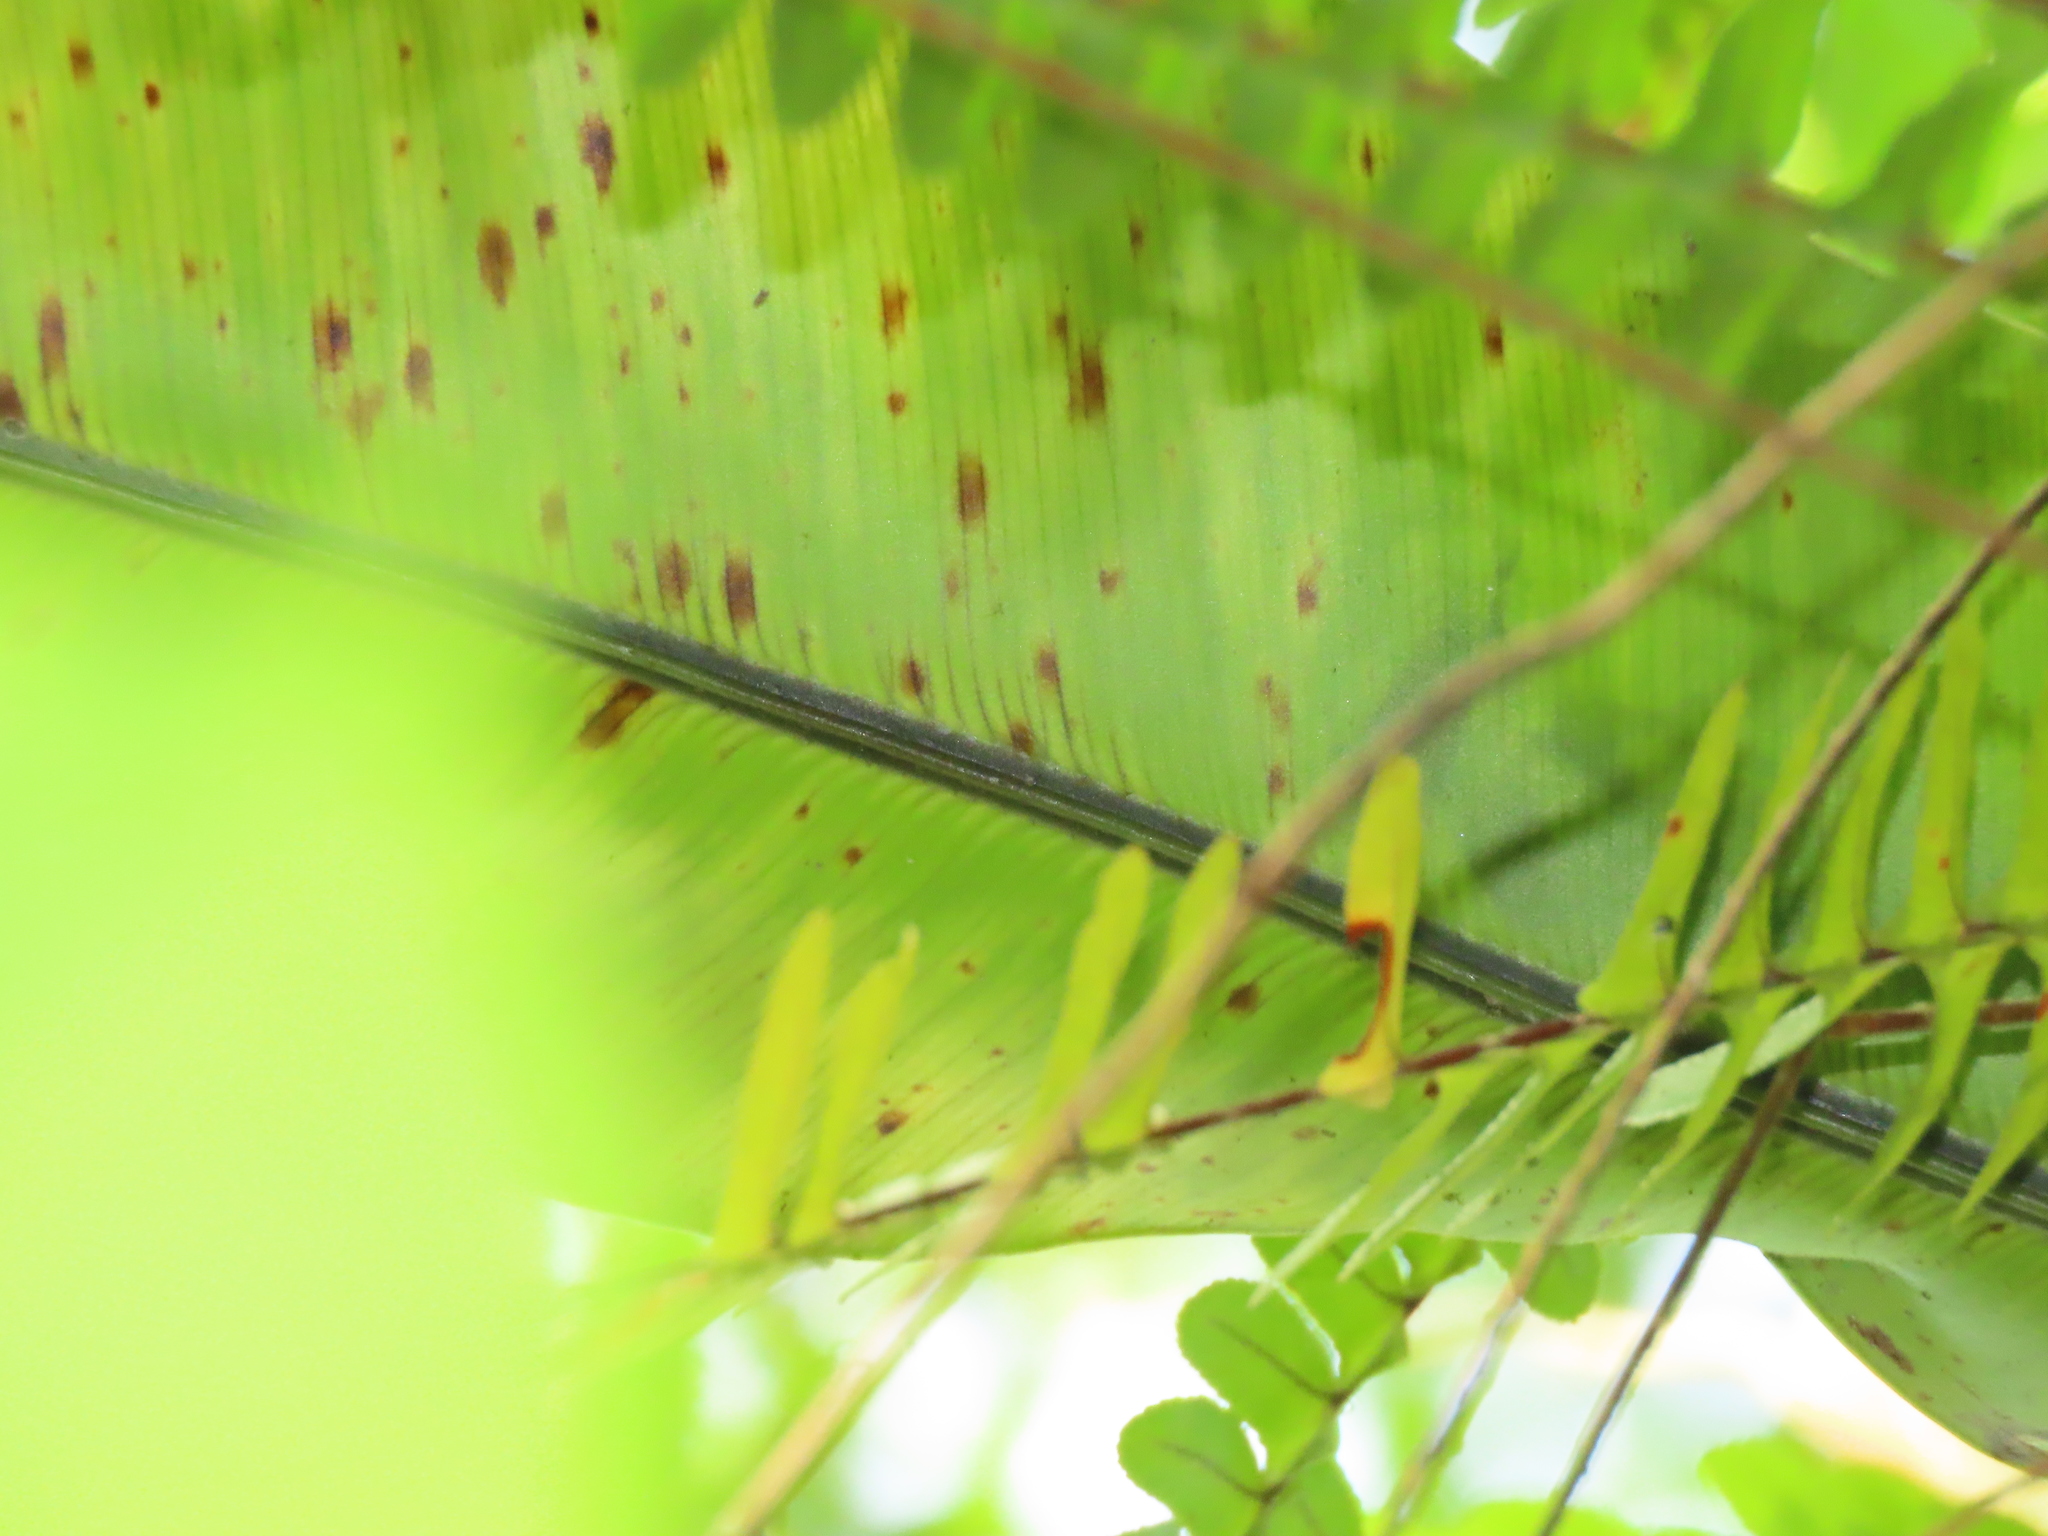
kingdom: Plantae
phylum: Tracheophyta
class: Polypodiopsida
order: Polypodiales
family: Aspleniaceae
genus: Asplenium
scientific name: Asplenium setoi
